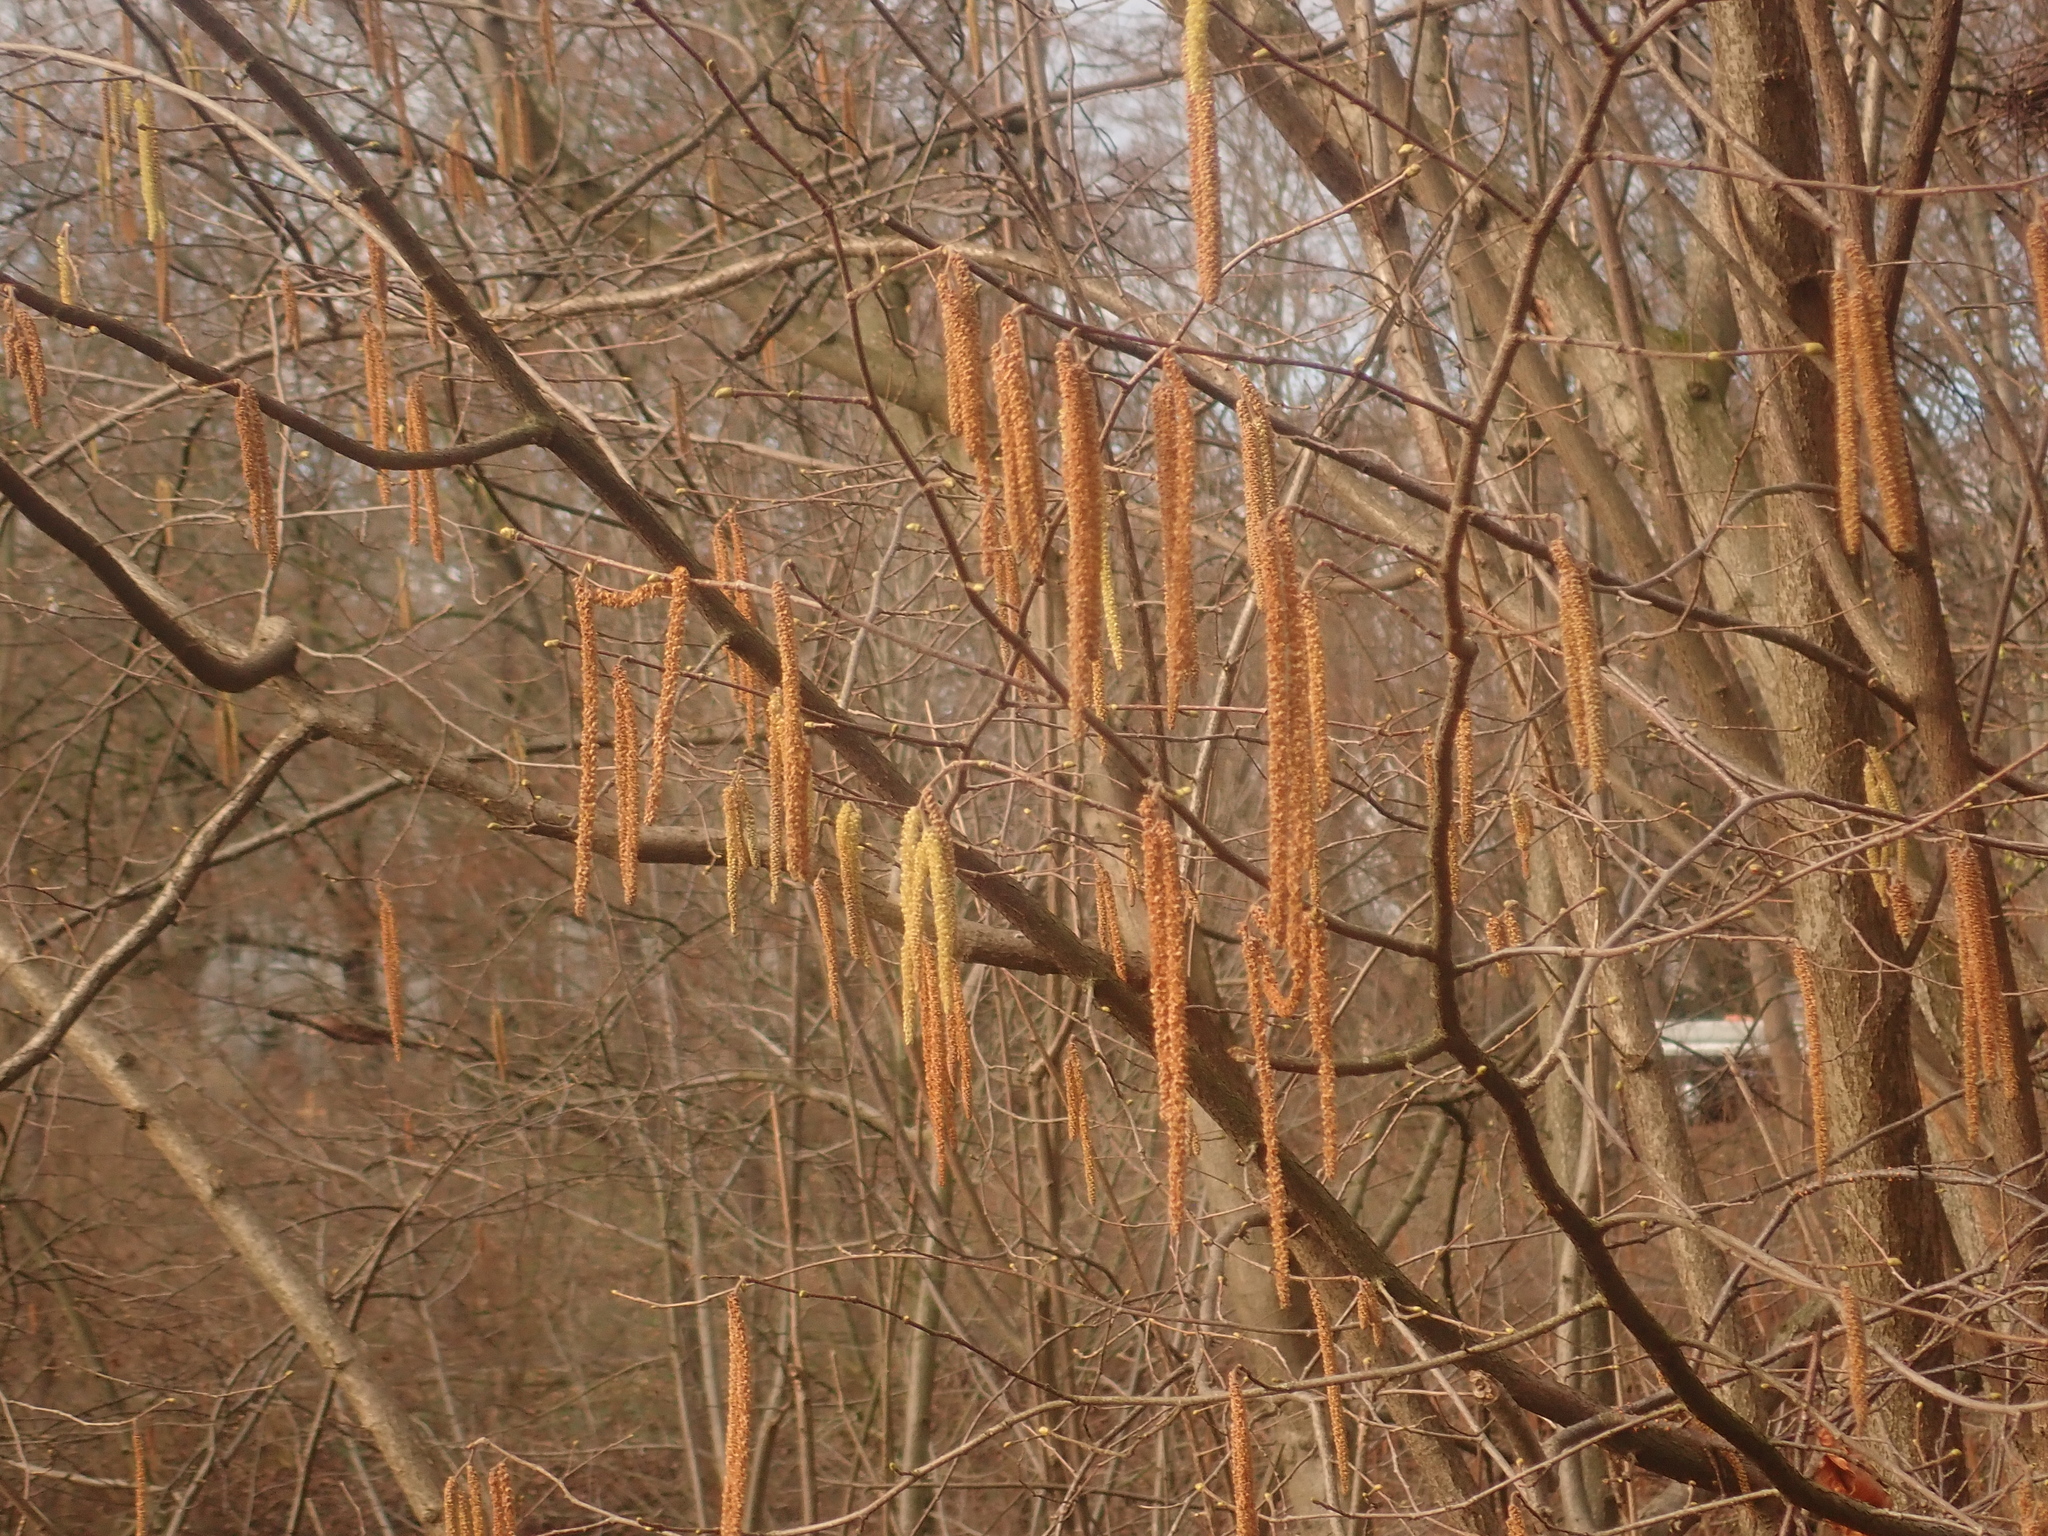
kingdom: Plantae
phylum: Tracheophyta
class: Magnoliopsida
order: Fagales
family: Betulaceae
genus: Corylus
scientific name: Corylus avellana
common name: European hazel
